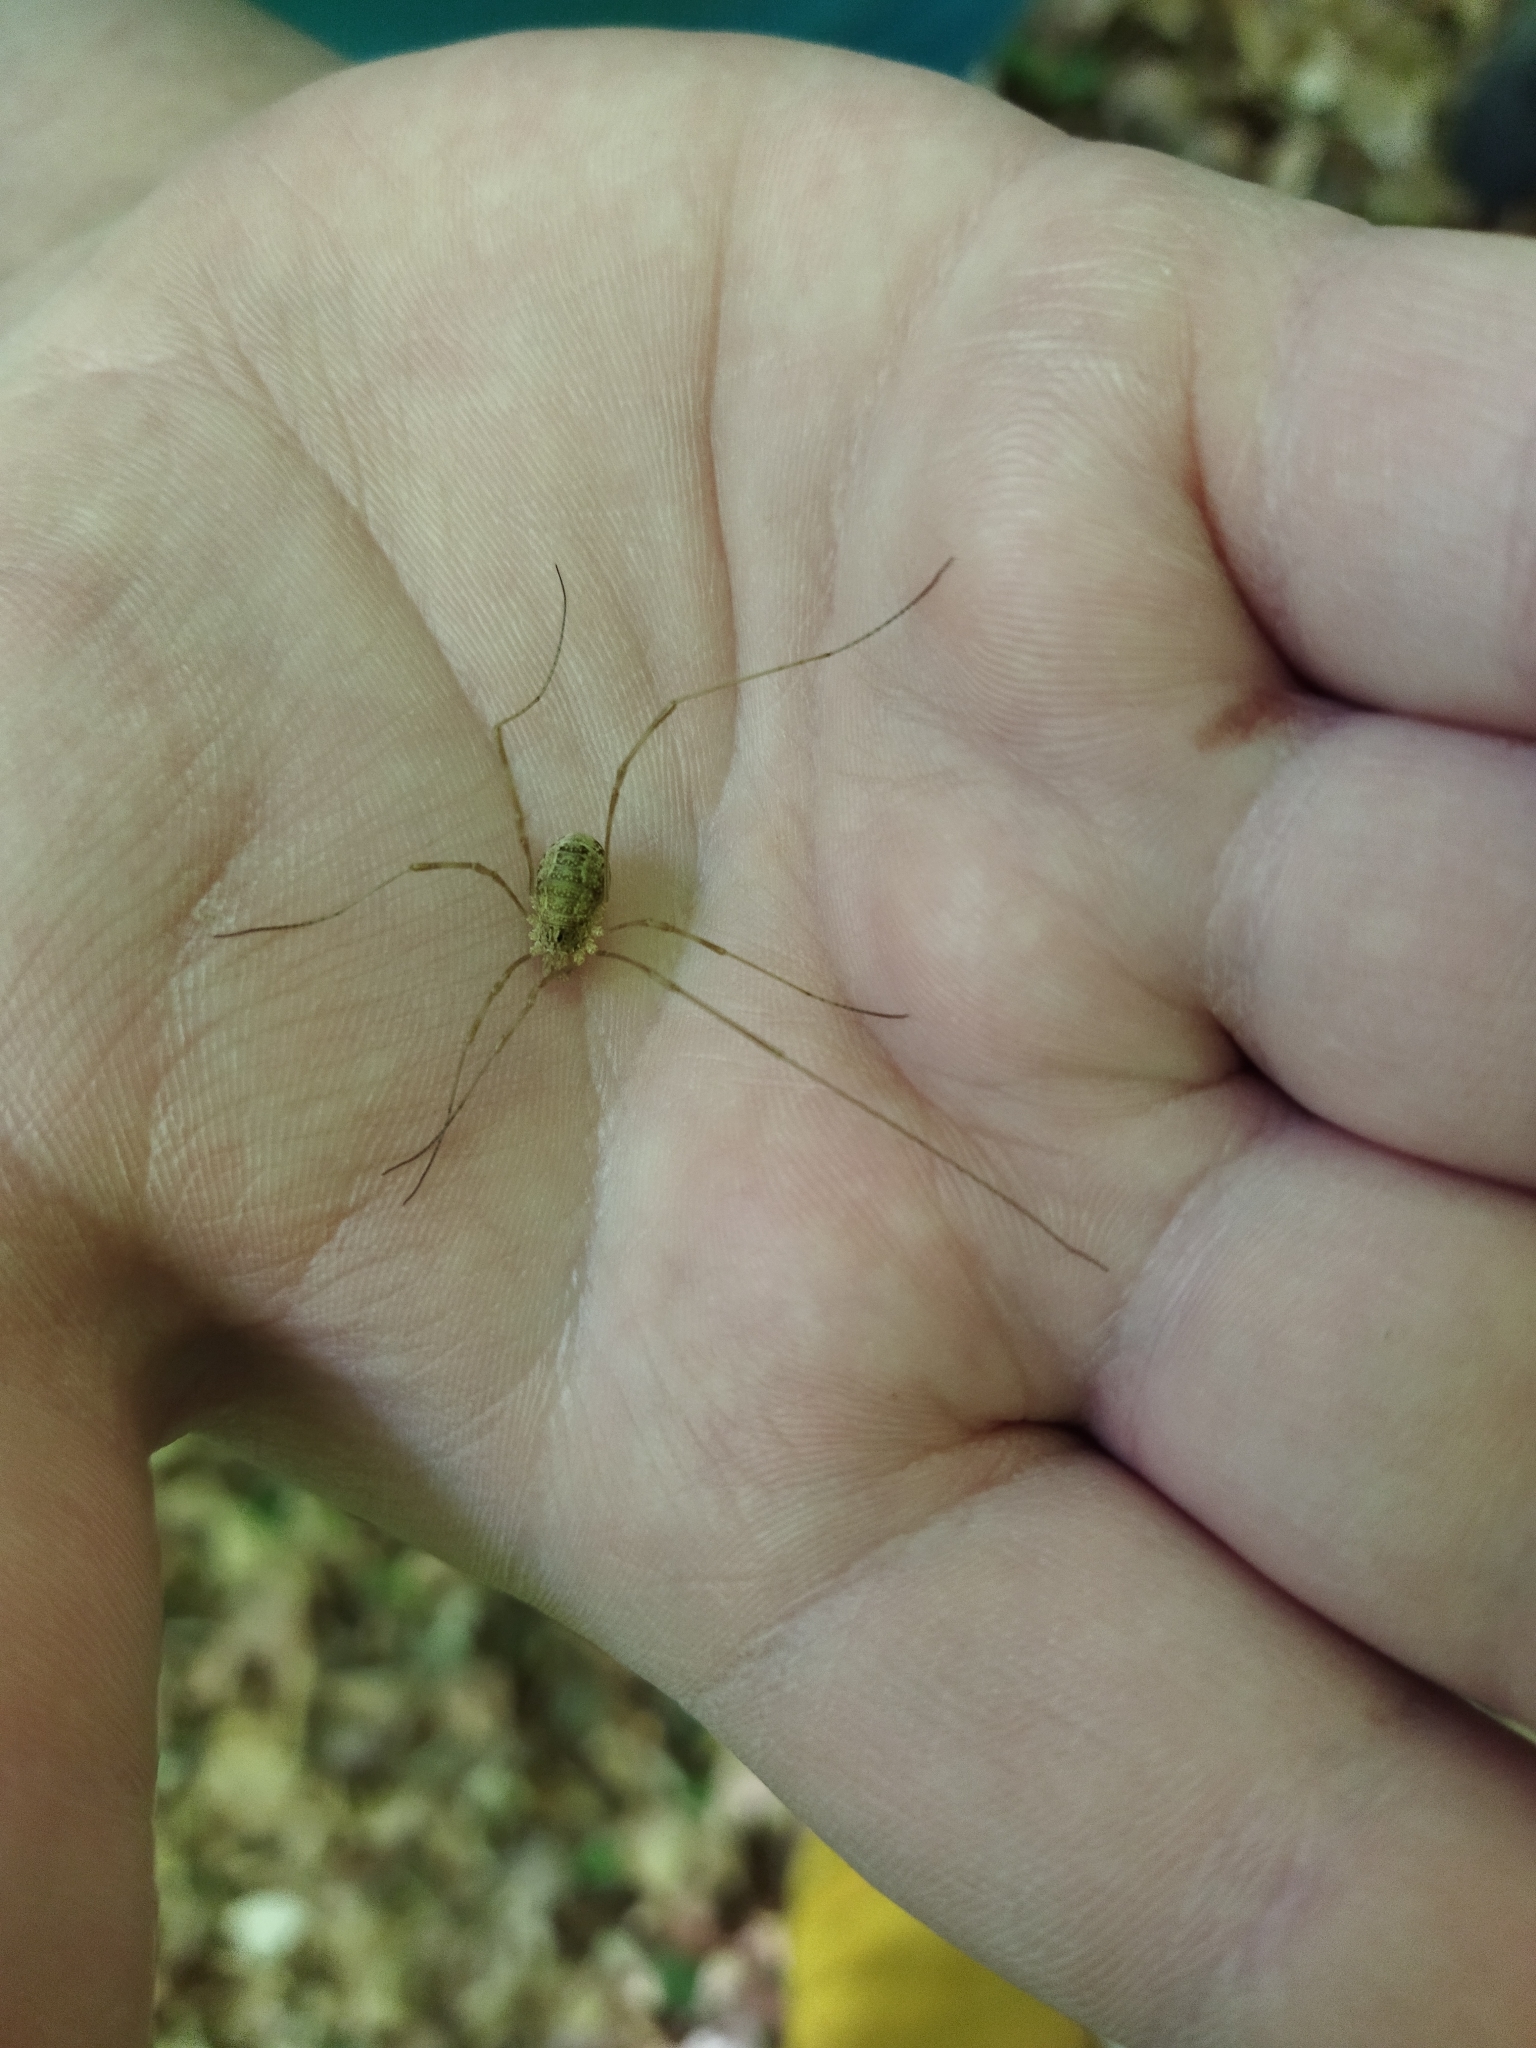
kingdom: Animalia
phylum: Arthropoda
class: Arachnida
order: Opiliones
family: Phalangiidae
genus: Rilaena
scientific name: Rilaena triangularis
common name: Spring harvestman
